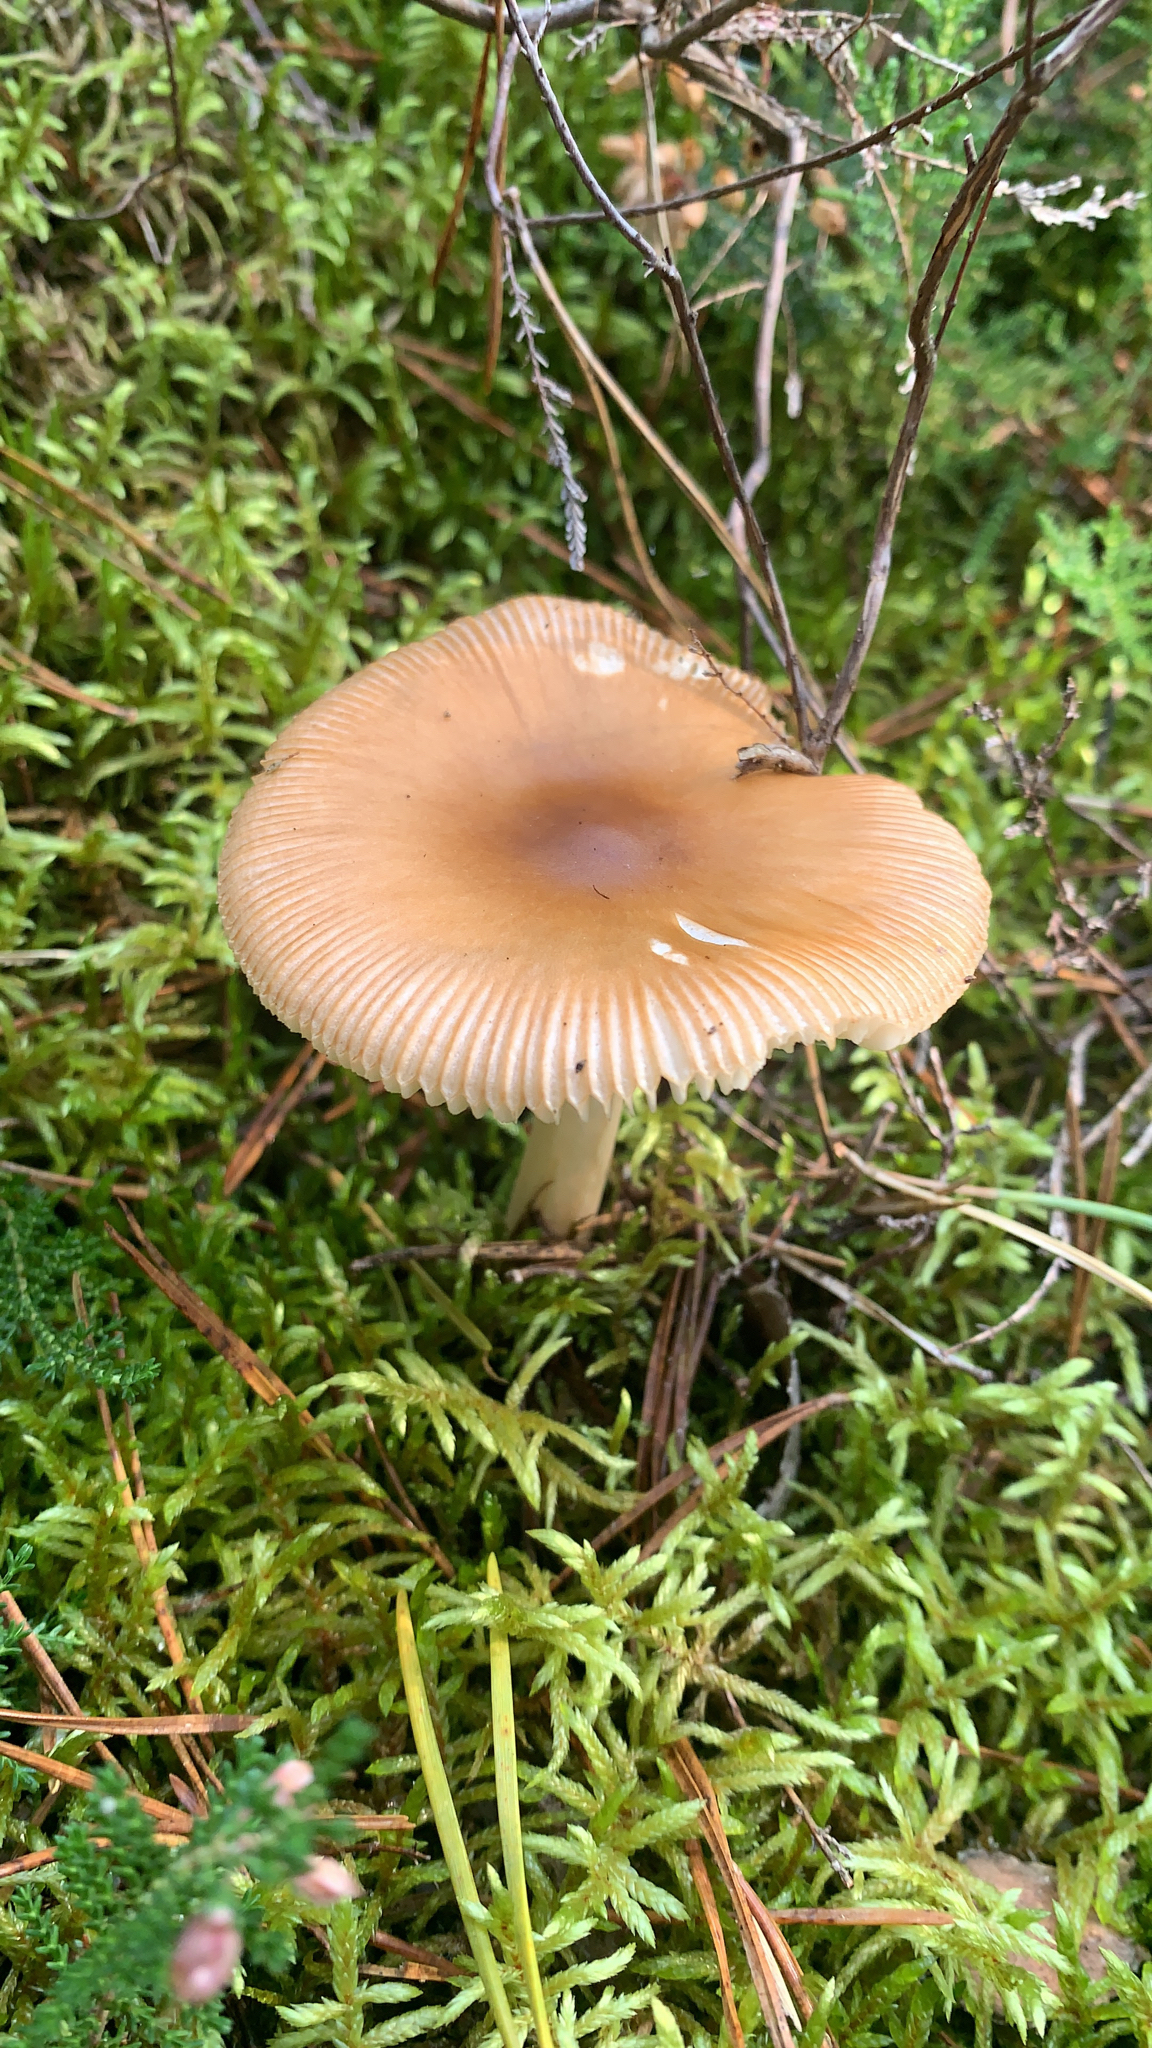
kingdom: Fungi
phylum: Basidiomycota
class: Agaricomycetes
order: Agaricales
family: Amanitaceae
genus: Amanita
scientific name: Amanita fulva
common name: Tawny grisette
